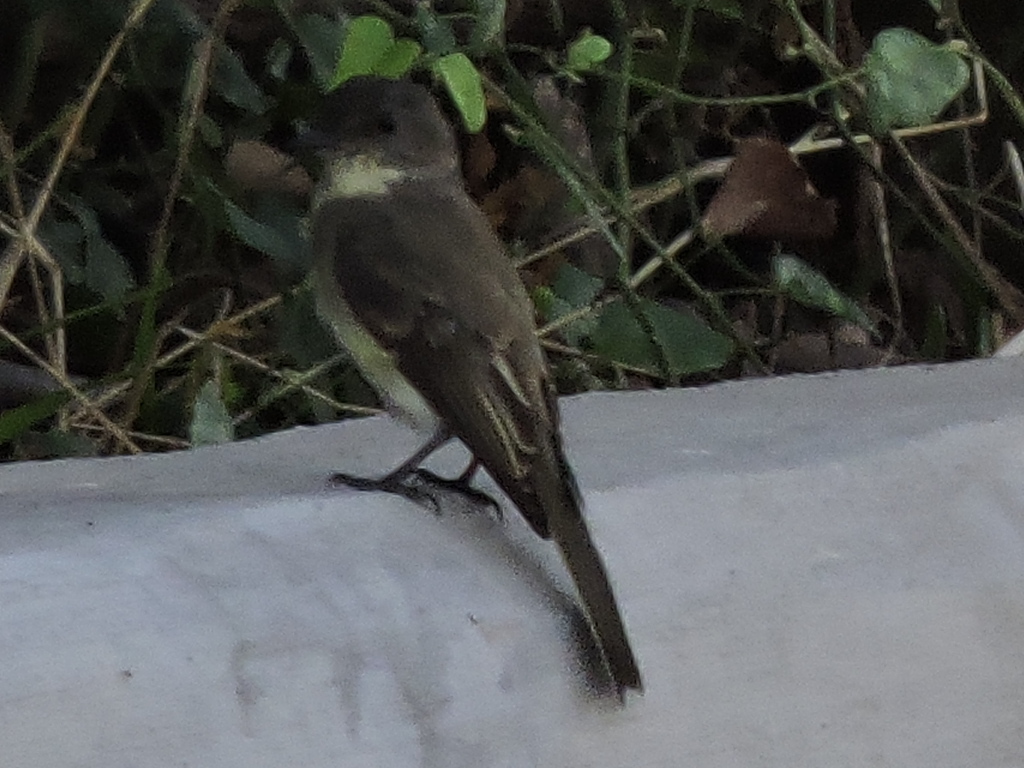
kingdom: Animalia
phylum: Chordata
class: Aves
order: Passeriformes
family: Tyrannidae
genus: Sayornis
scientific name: Sayornis phoebe
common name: Eastern phoebe
